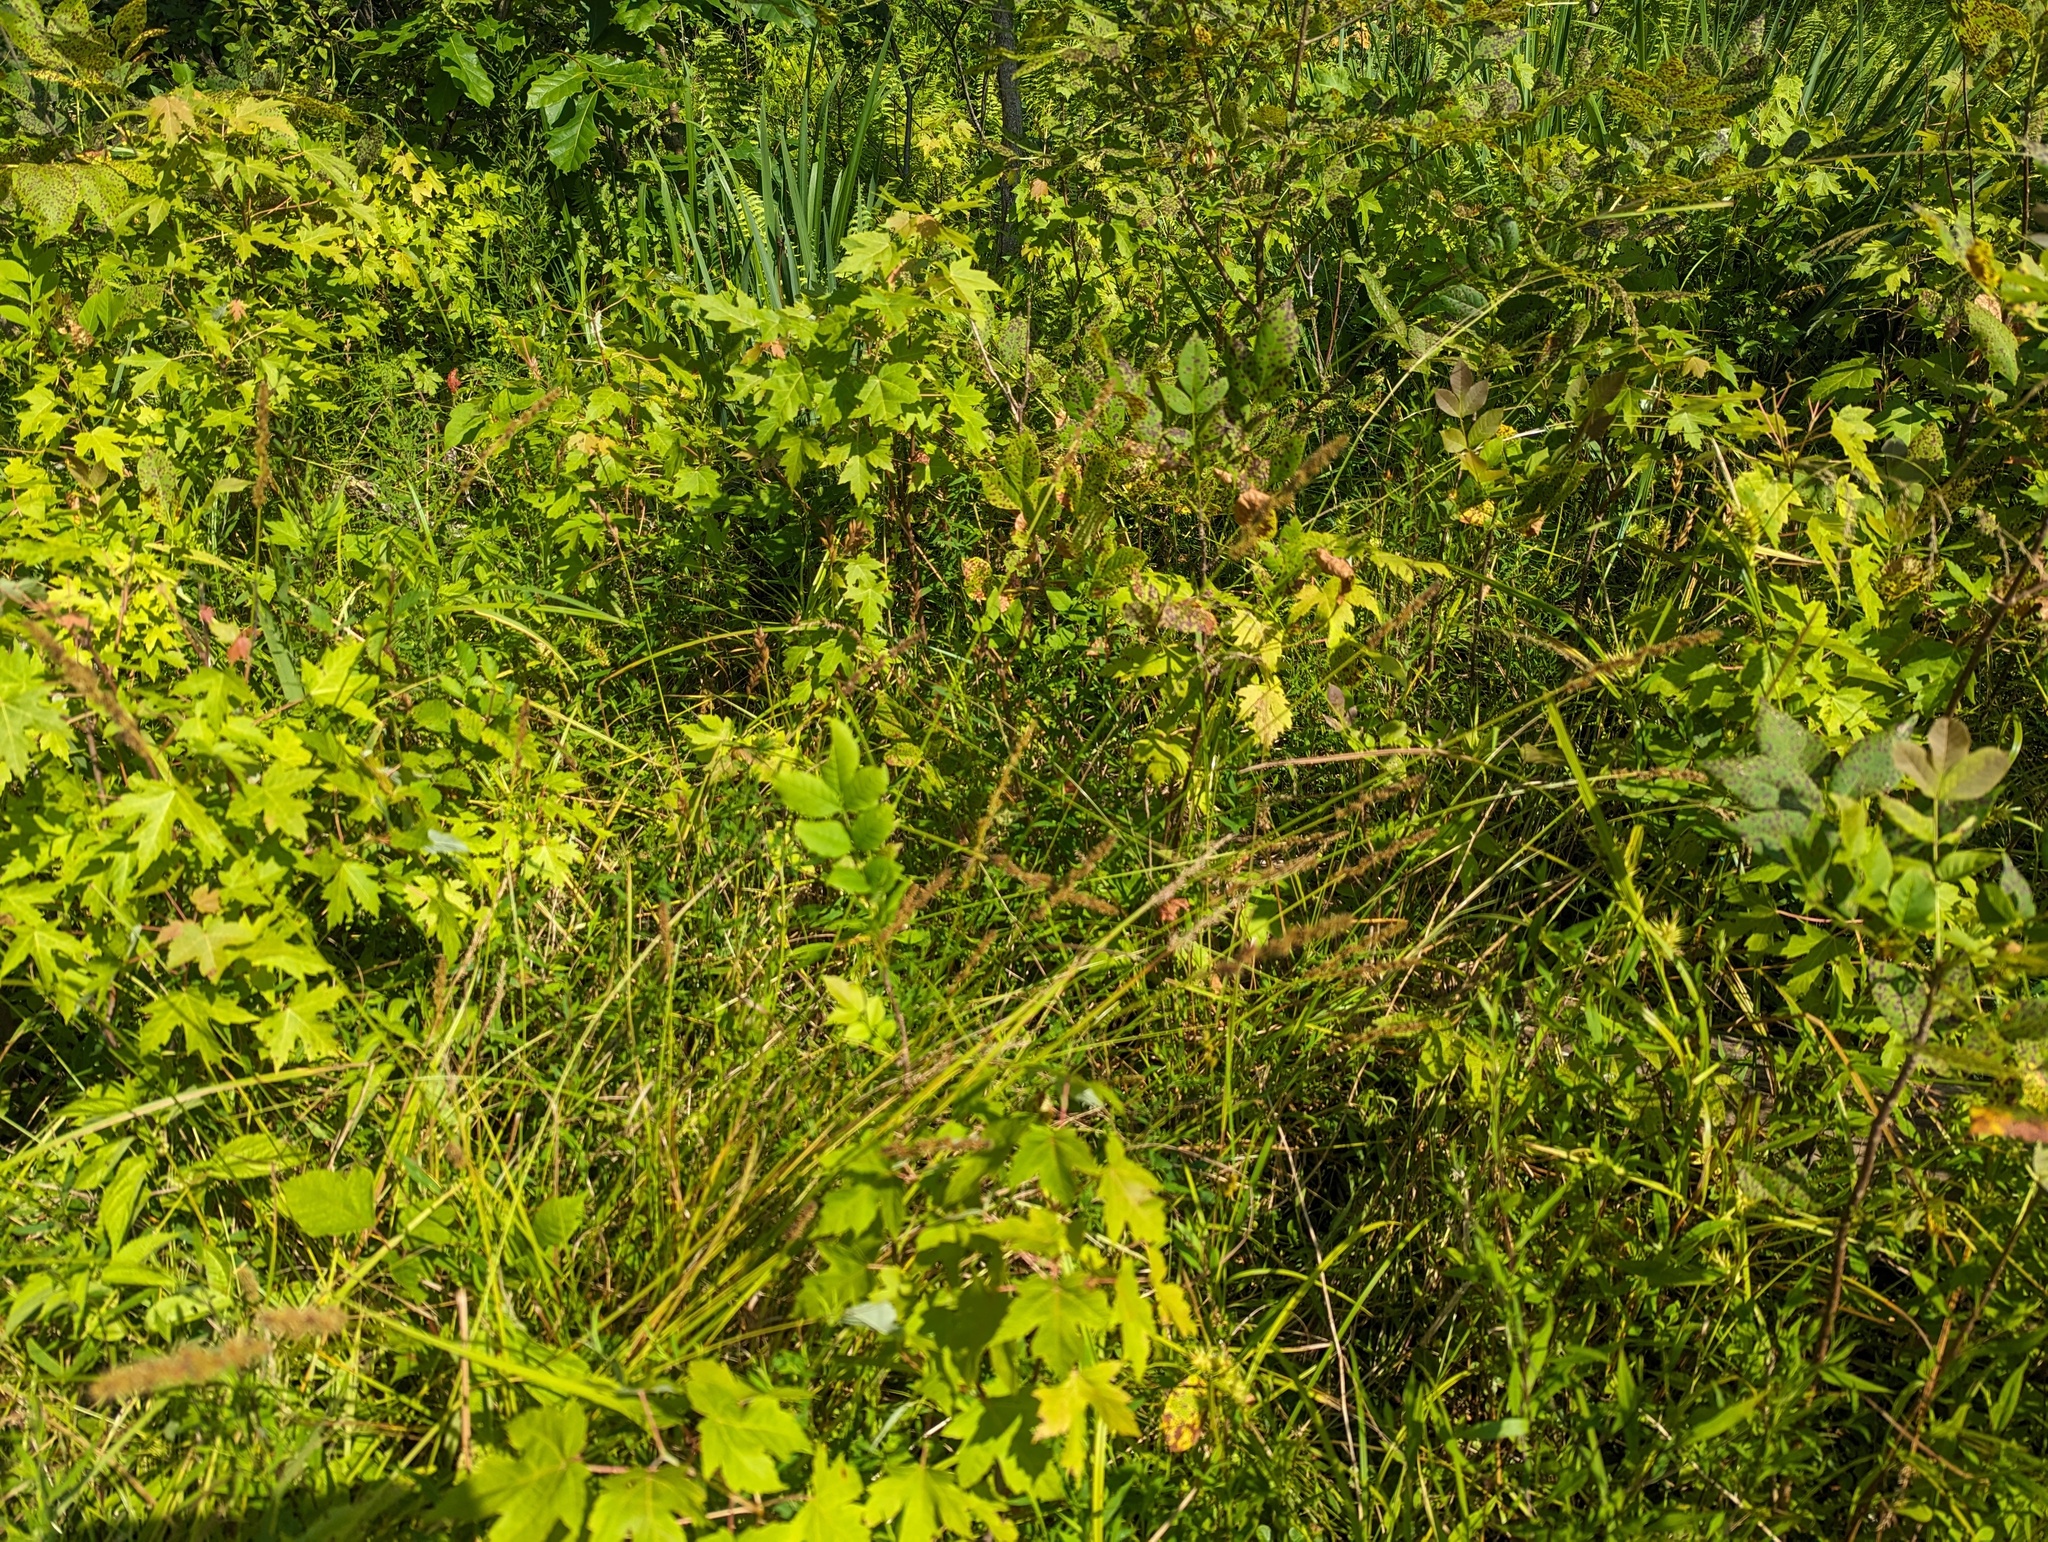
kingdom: Plantae
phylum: Tracheophyta
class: Liliopsida
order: Poales
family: Cyperaceae
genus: Carex
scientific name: Carex vulpinoidea
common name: American fox-sedge
